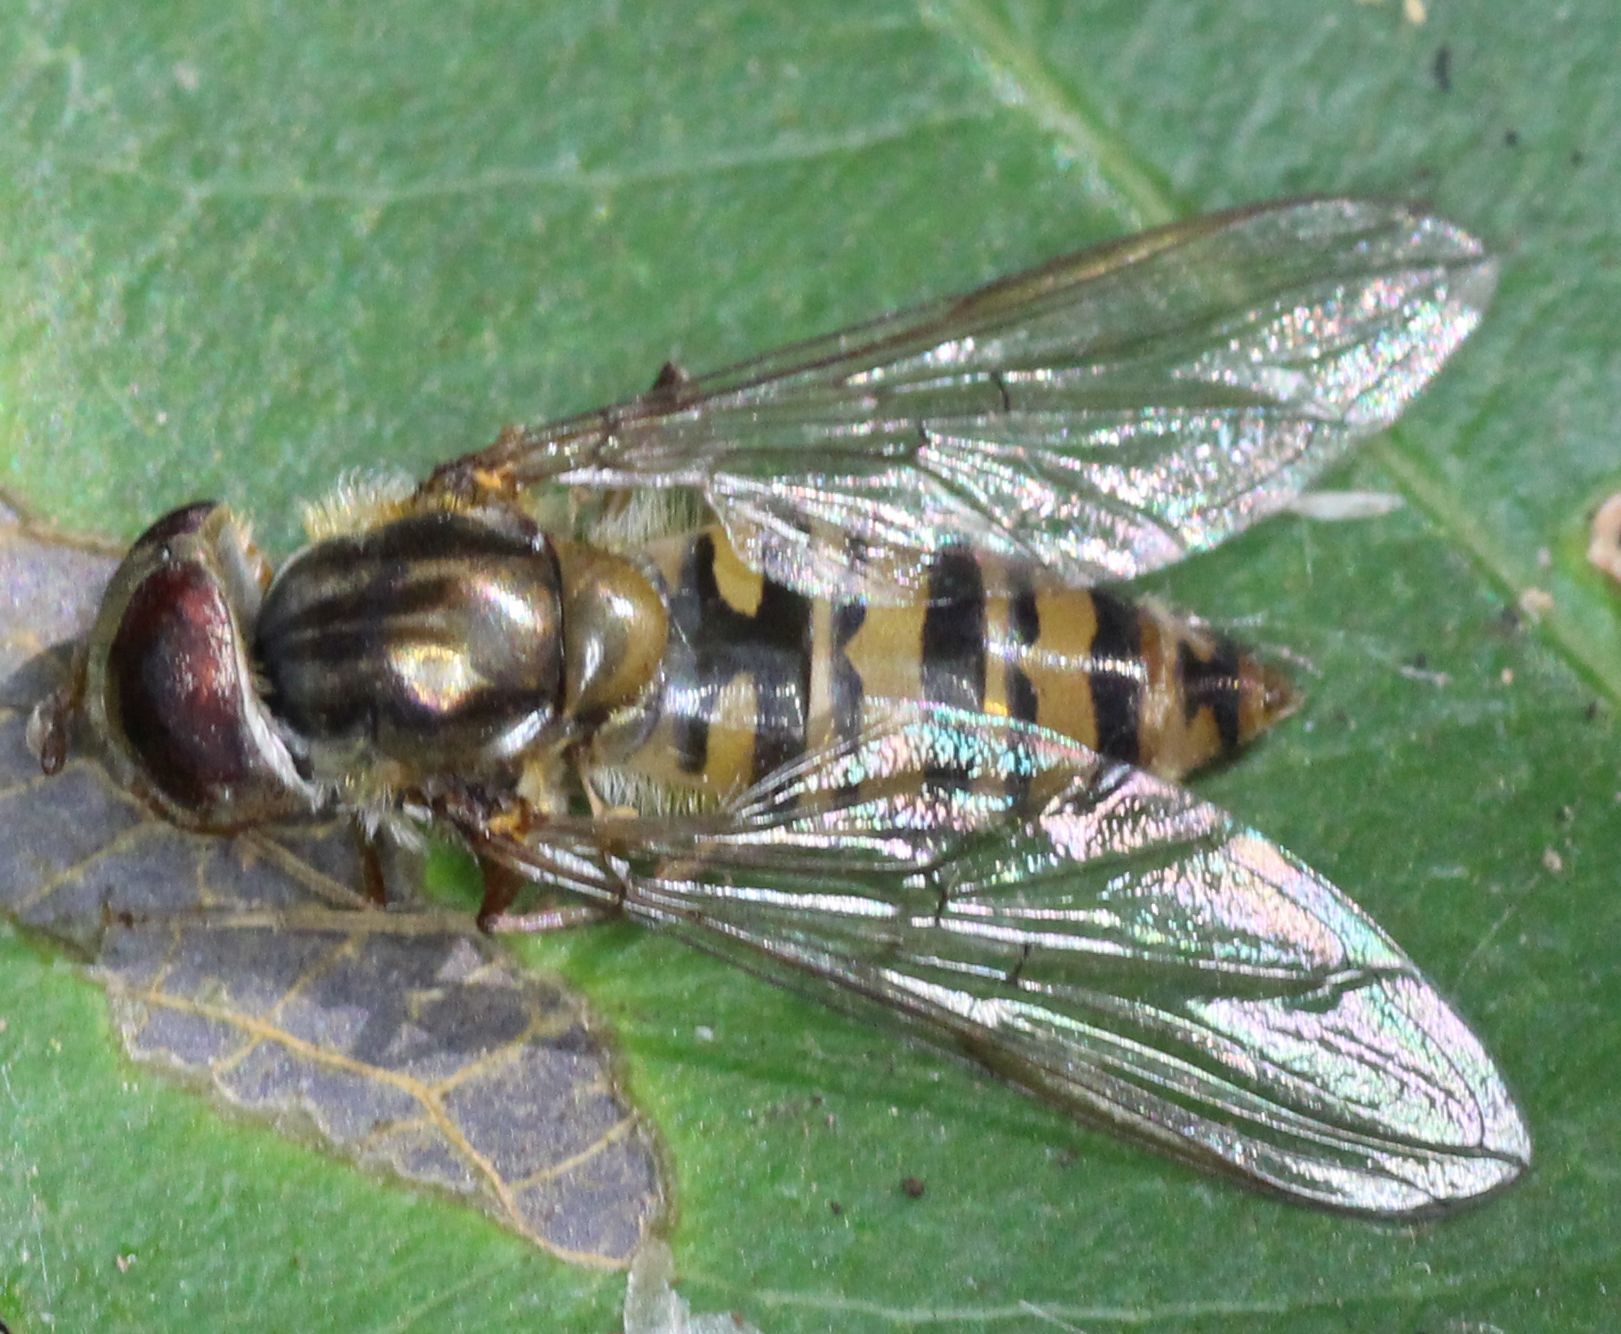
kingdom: Animalia
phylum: Arthropoda
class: Insecta
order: Diptera
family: Syrphidae
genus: Episyrphus
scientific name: Episyrphus balteatus
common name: Marmalade hoverfly
